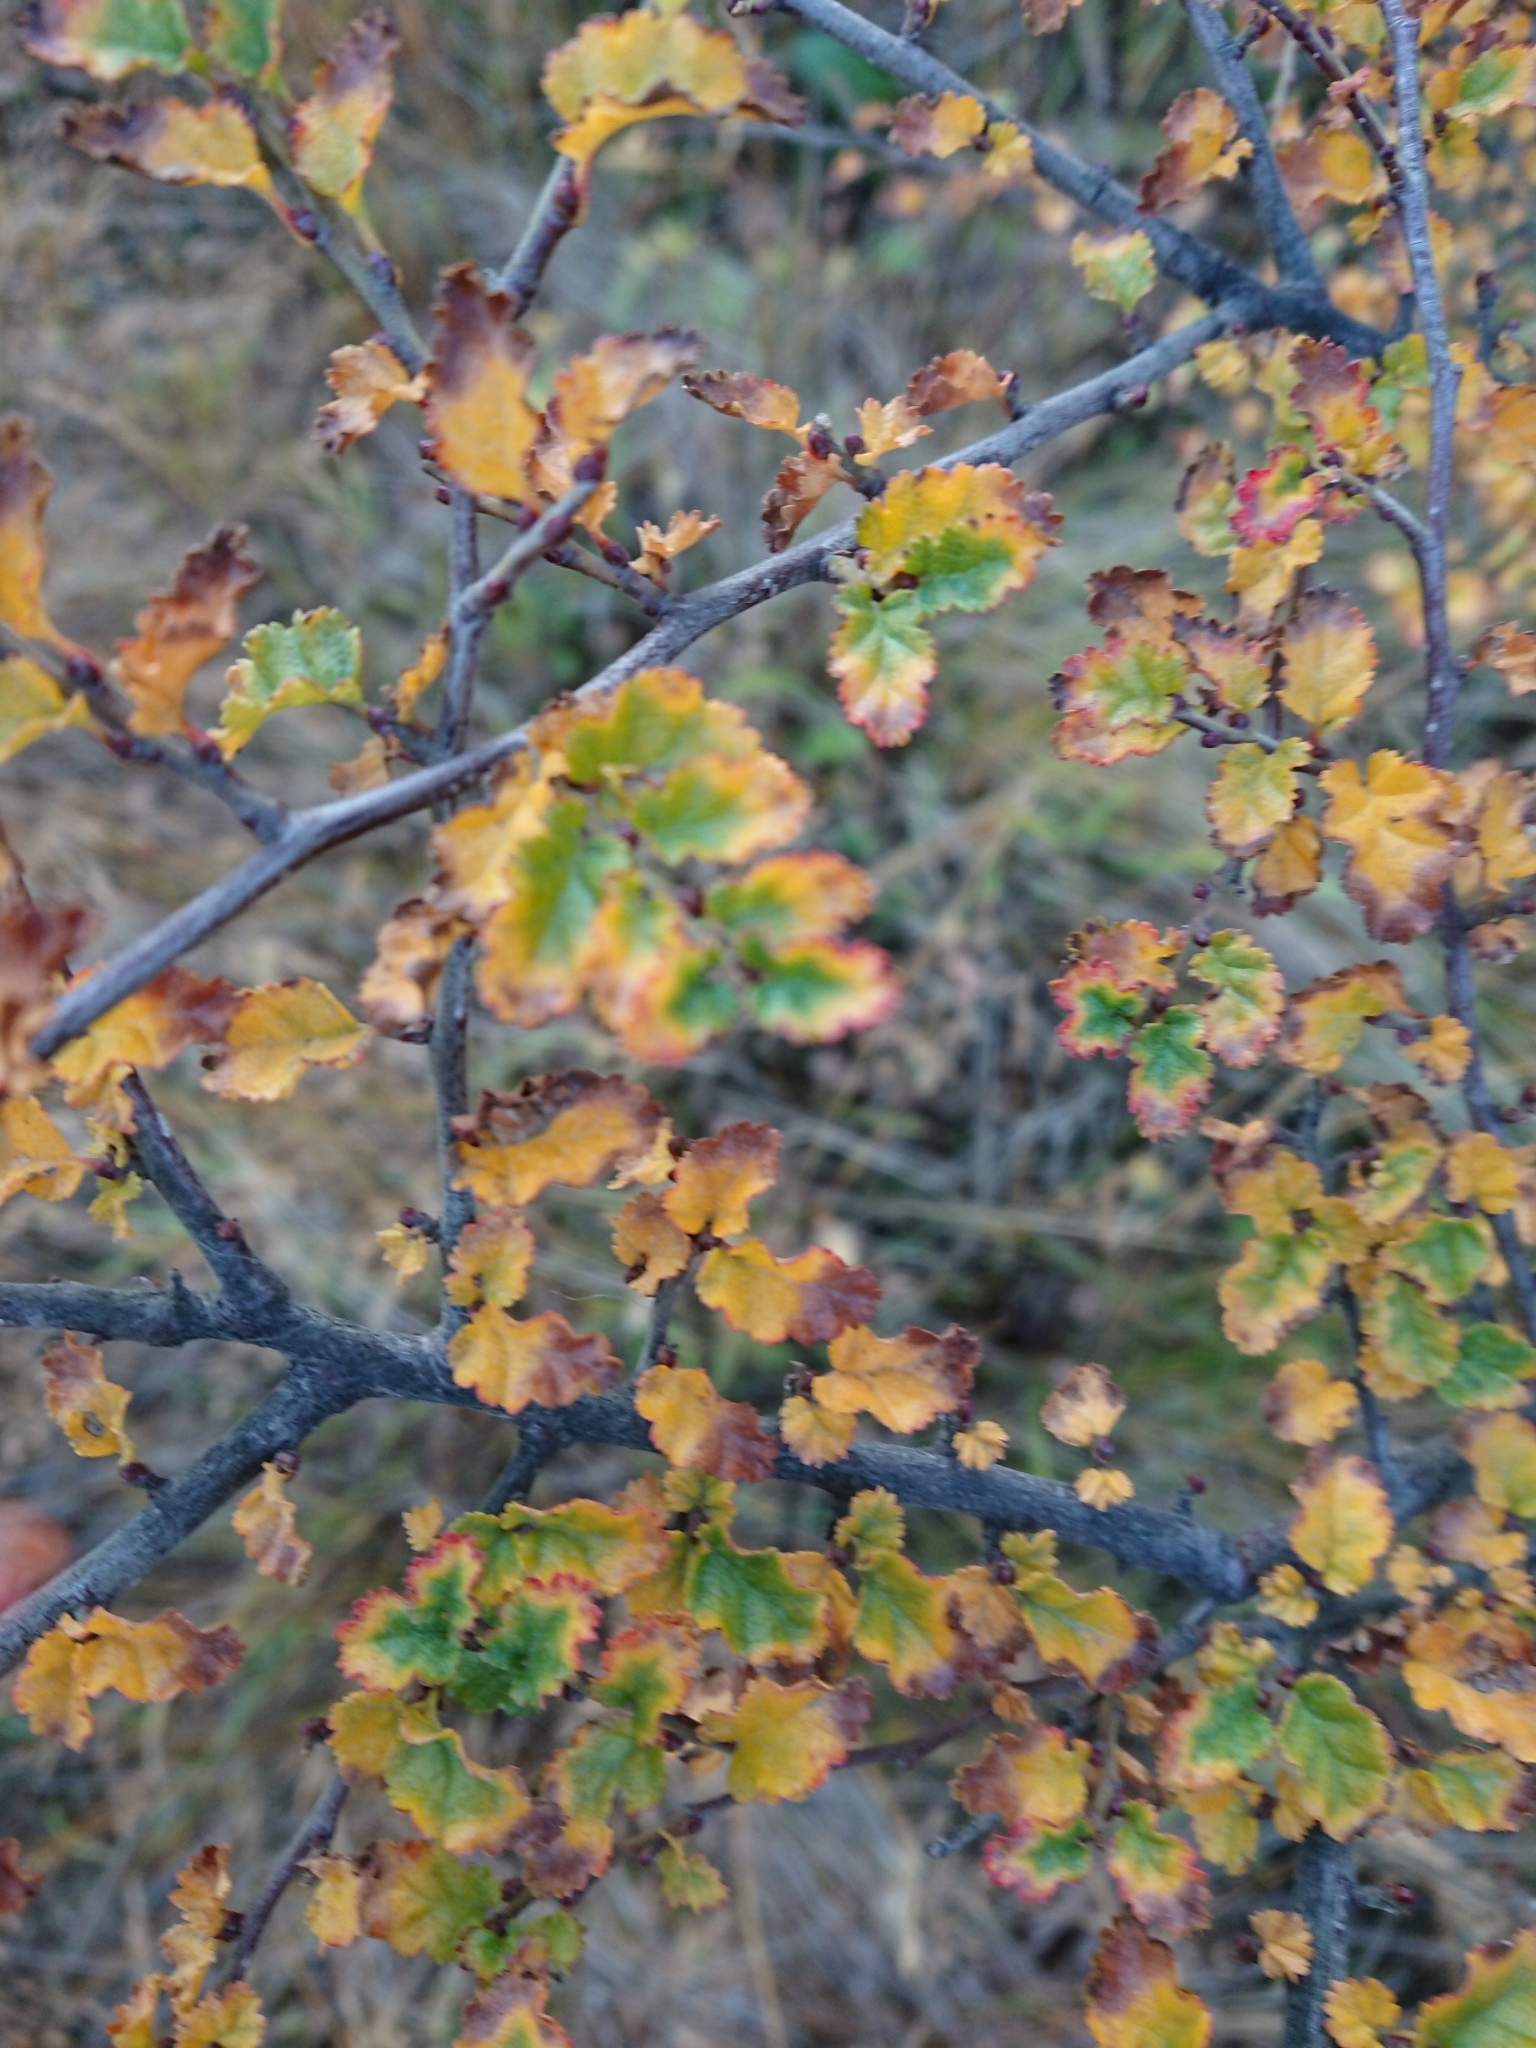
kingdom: Plantae
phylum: Tracheophyta
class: Magnoliopsida
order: Fagales
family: Nothofagaceae
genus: Nothofagus
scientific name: Nothofagus antarctica
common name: Antarctic beech
